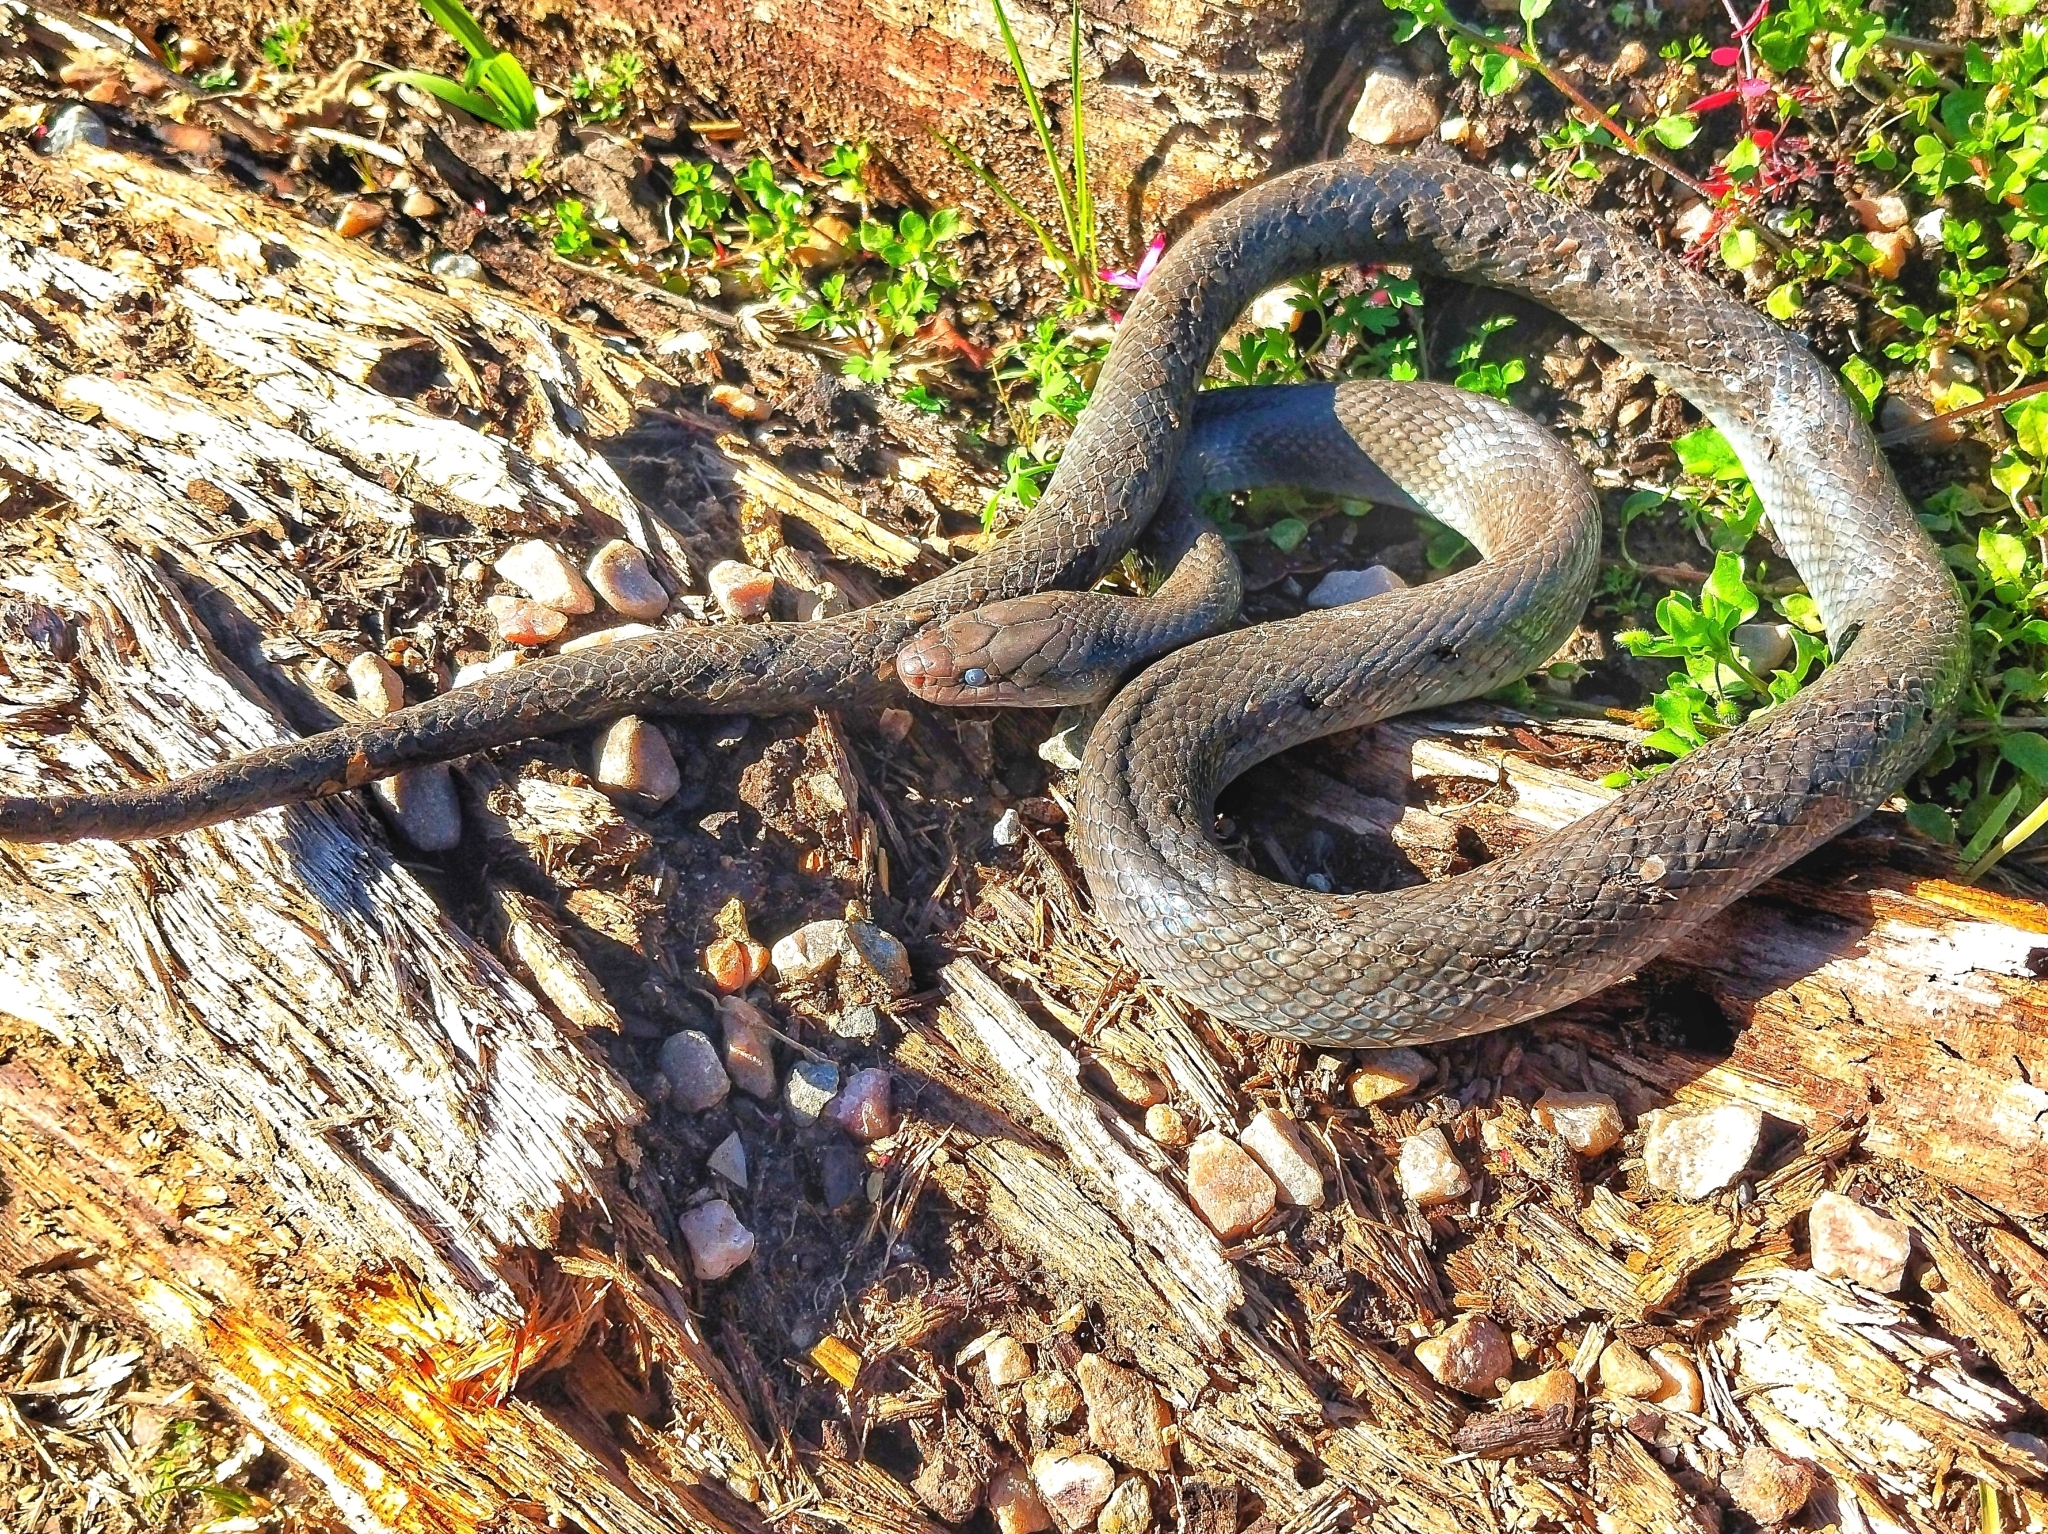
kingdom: Animalia
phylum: Chordata
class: Squamata
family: Lamprophiidae
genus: Lycodonomorphus
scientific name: Lycodonomorphus inornatus
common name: Black house snake
